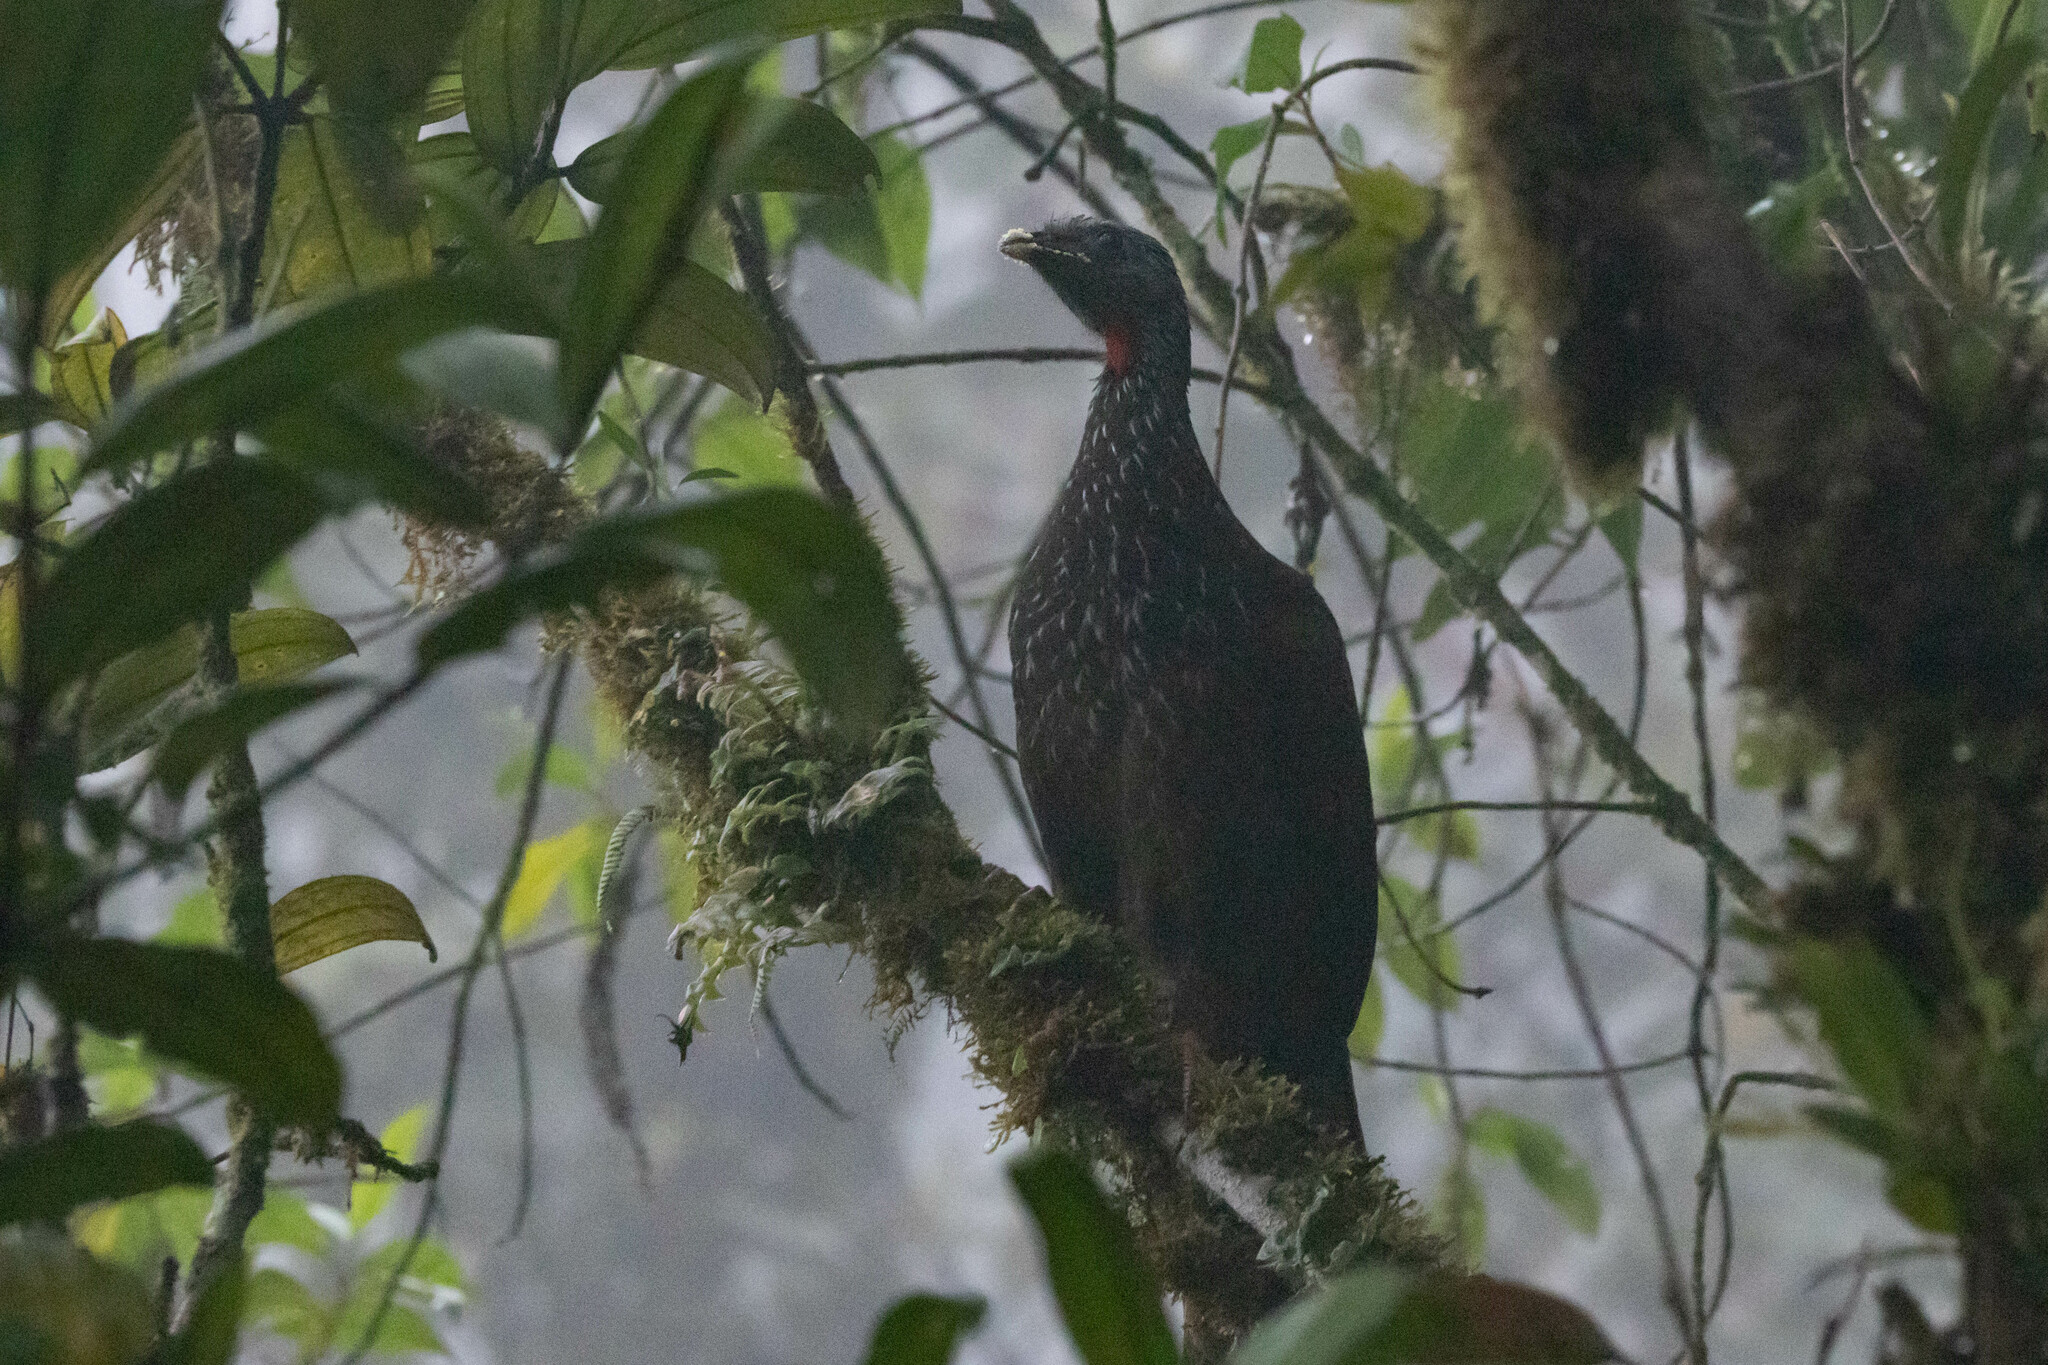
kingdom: Animalia
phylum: Chordata
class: Aves
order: Galliformes
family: Cracidae
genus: Penelope
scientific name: Penelope barbata
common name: Bearded guan
